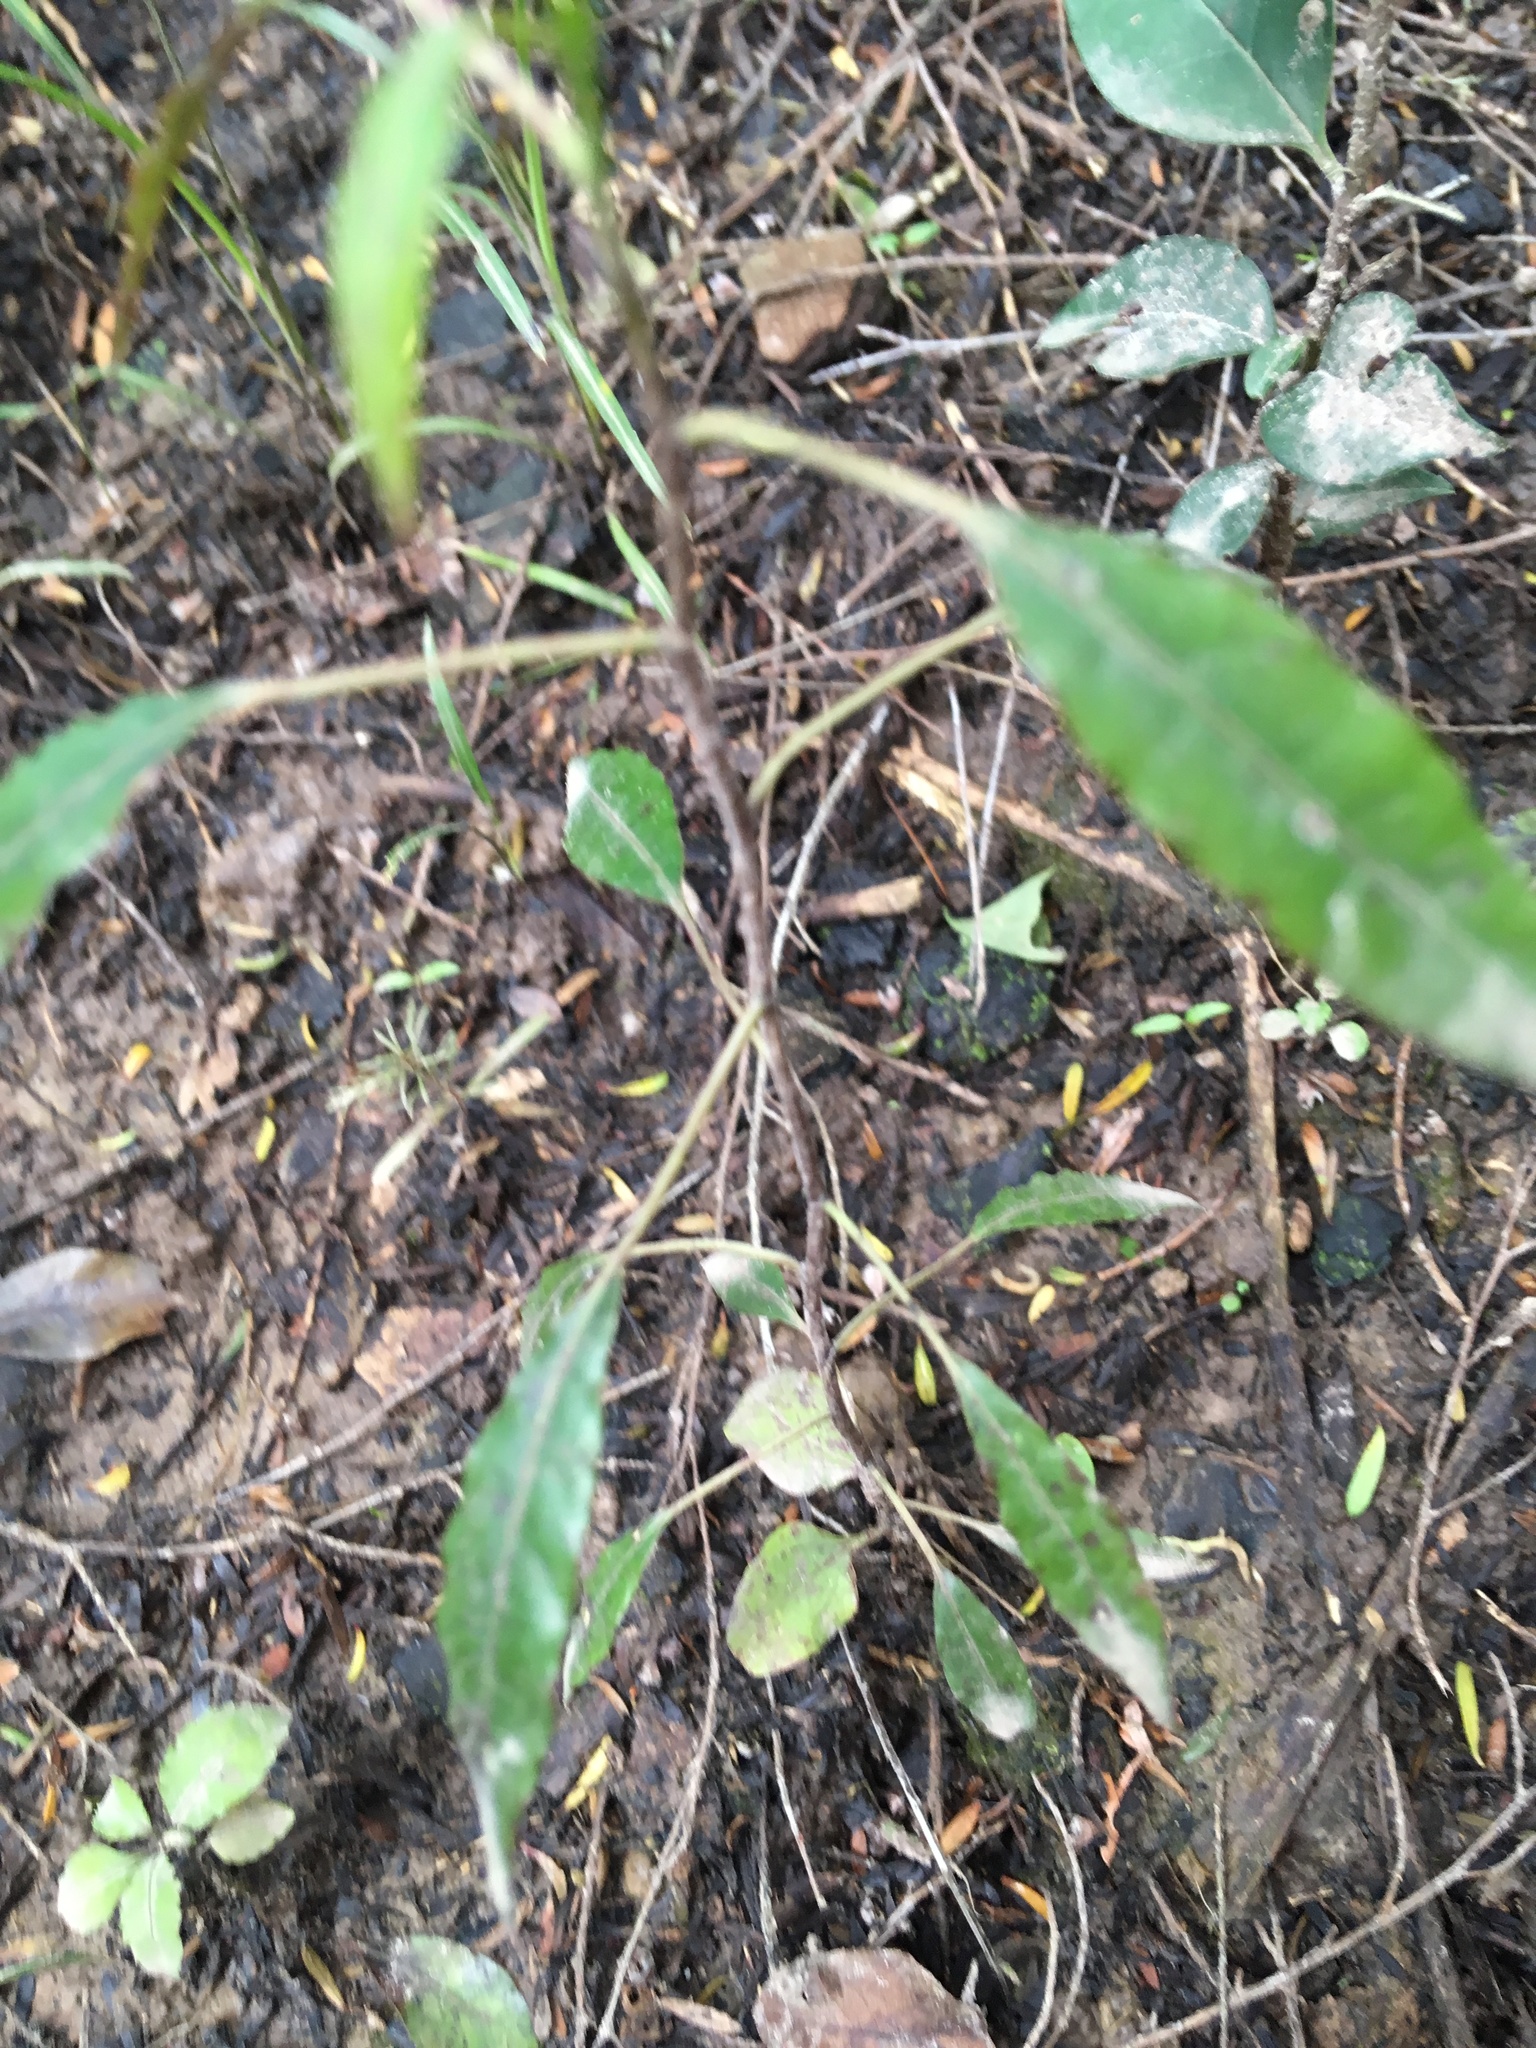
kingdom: Plantae
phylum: Tracheophyta
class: Magnoliopsida
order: Malpighiales
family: Passifloraceae
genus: Passiflora
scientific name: Passiflora tetrandra
